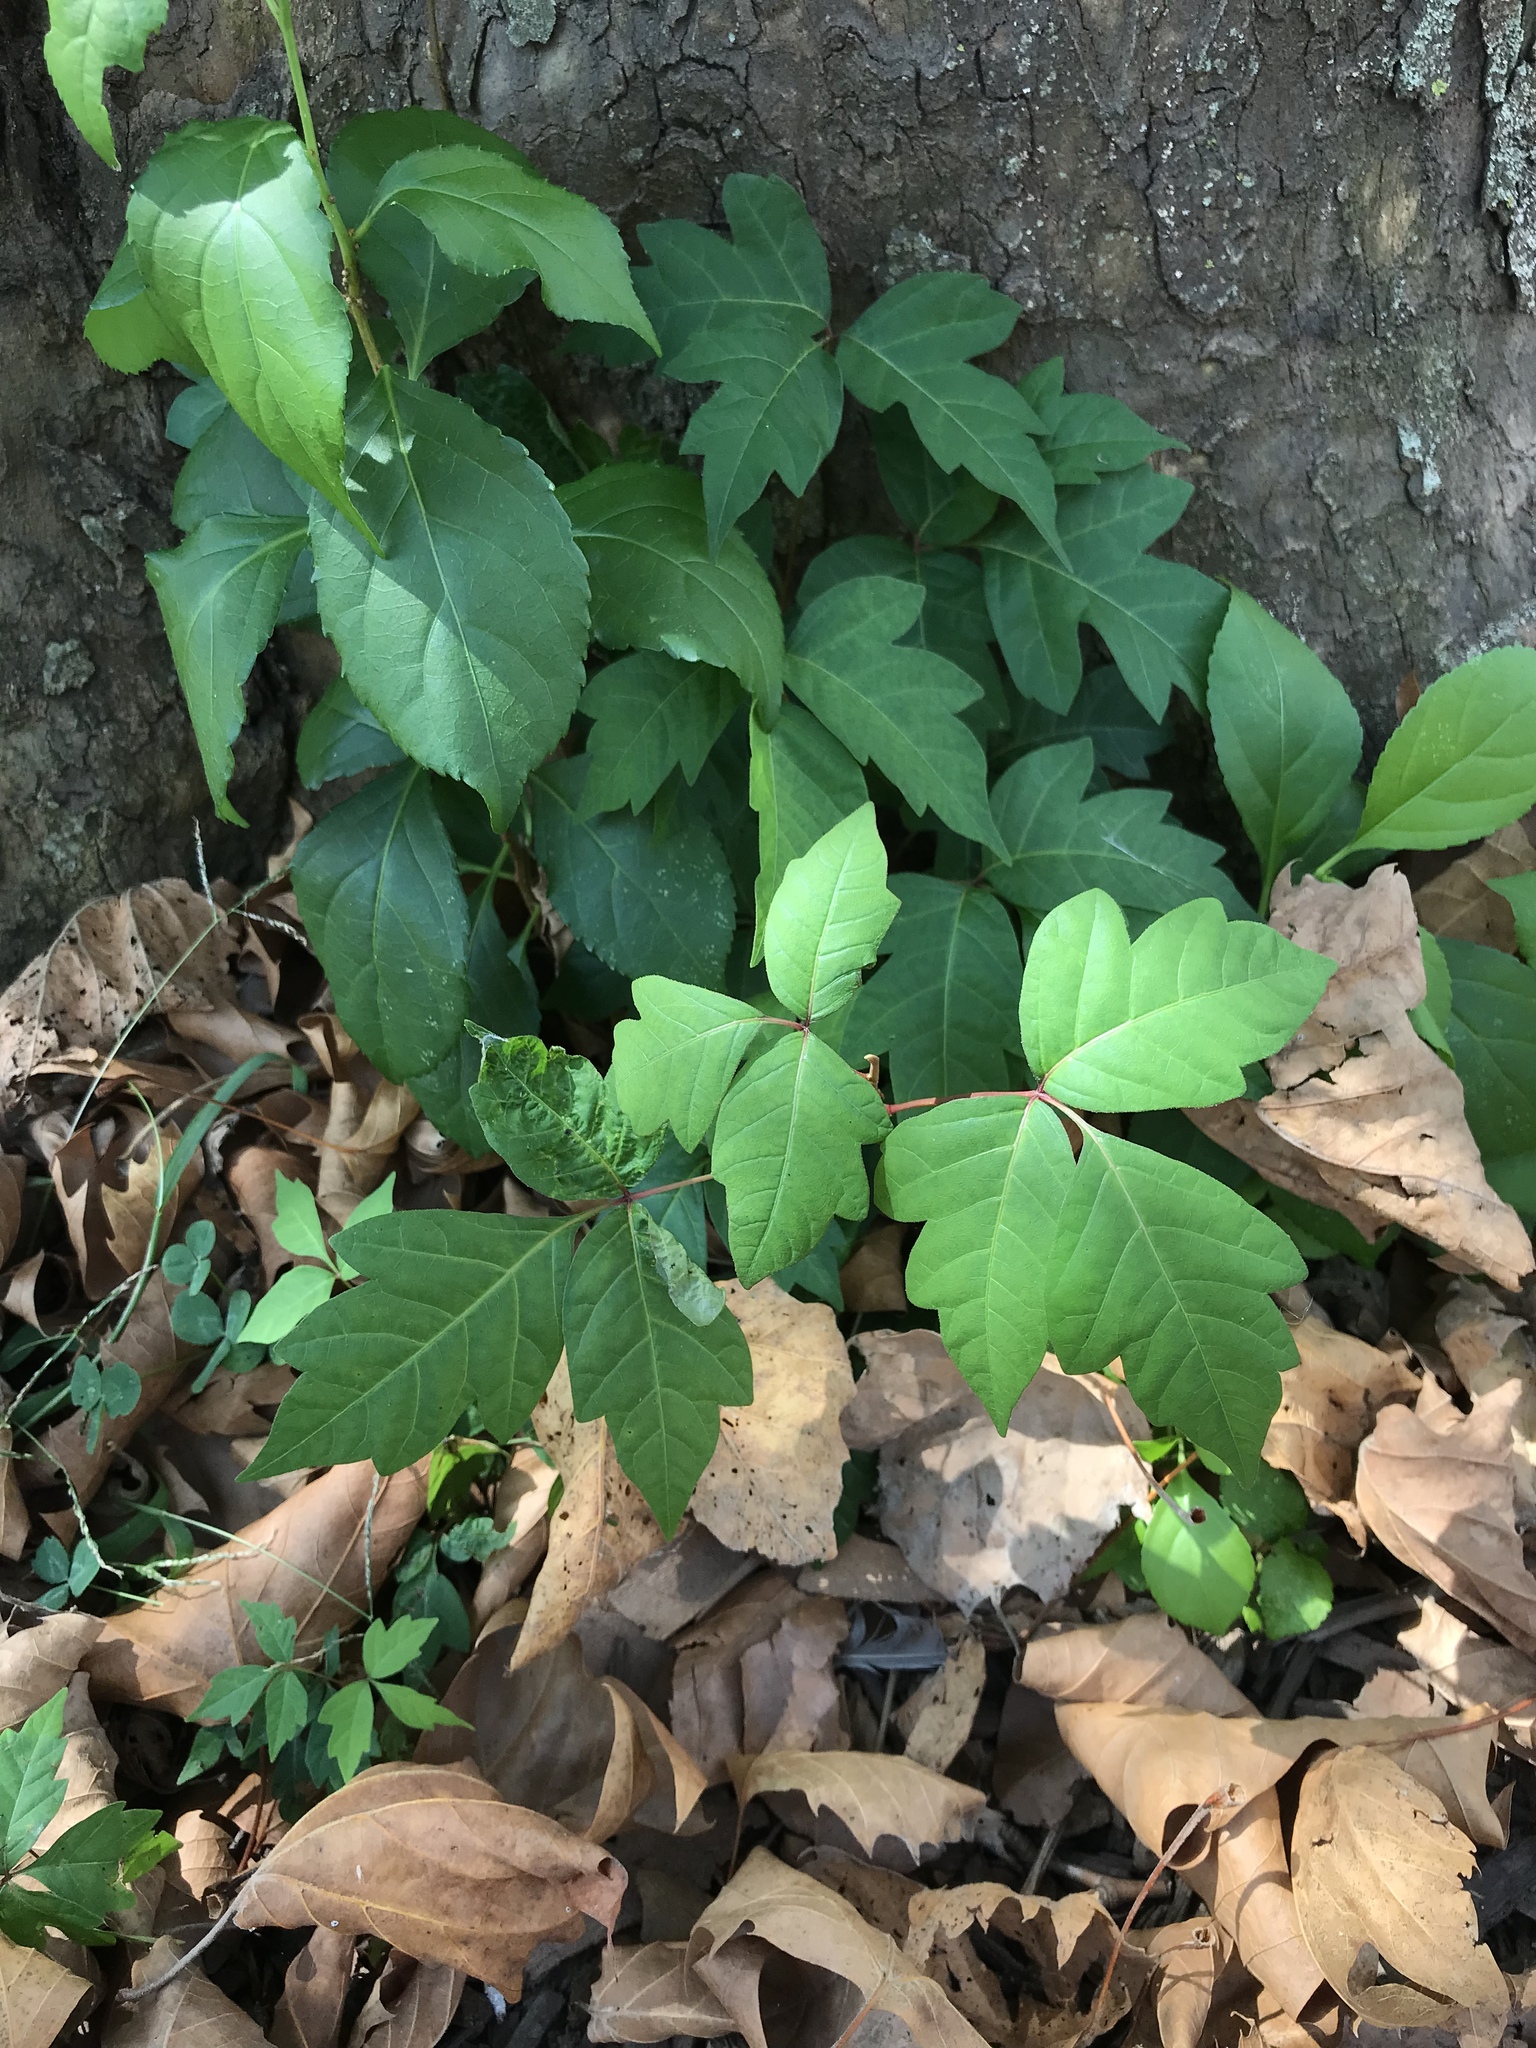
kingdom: Plantae
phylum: Tracheophyta
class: Magnoliopsida
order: Sapindales
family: Anacardiaceae
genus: Toxicodendron
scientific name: Toxicodendron radicans
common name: Poison ivy
